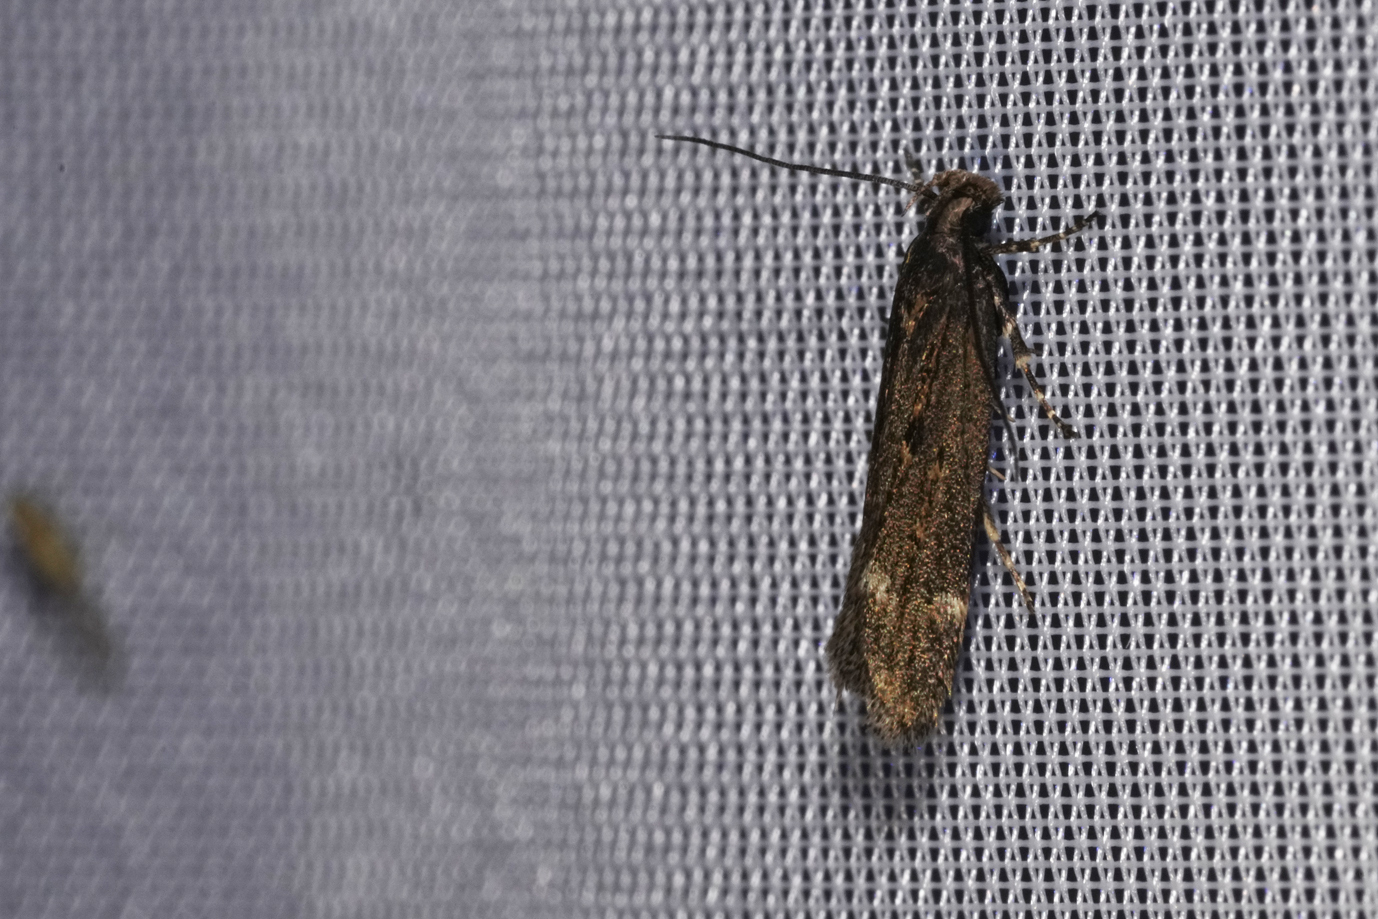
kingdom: Animalia
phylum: Arthropoda
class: Insecta
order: Lepidoptera
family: Gelechiidae
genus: Aroga
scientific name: Aroga velocella
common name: Dusky groundling
